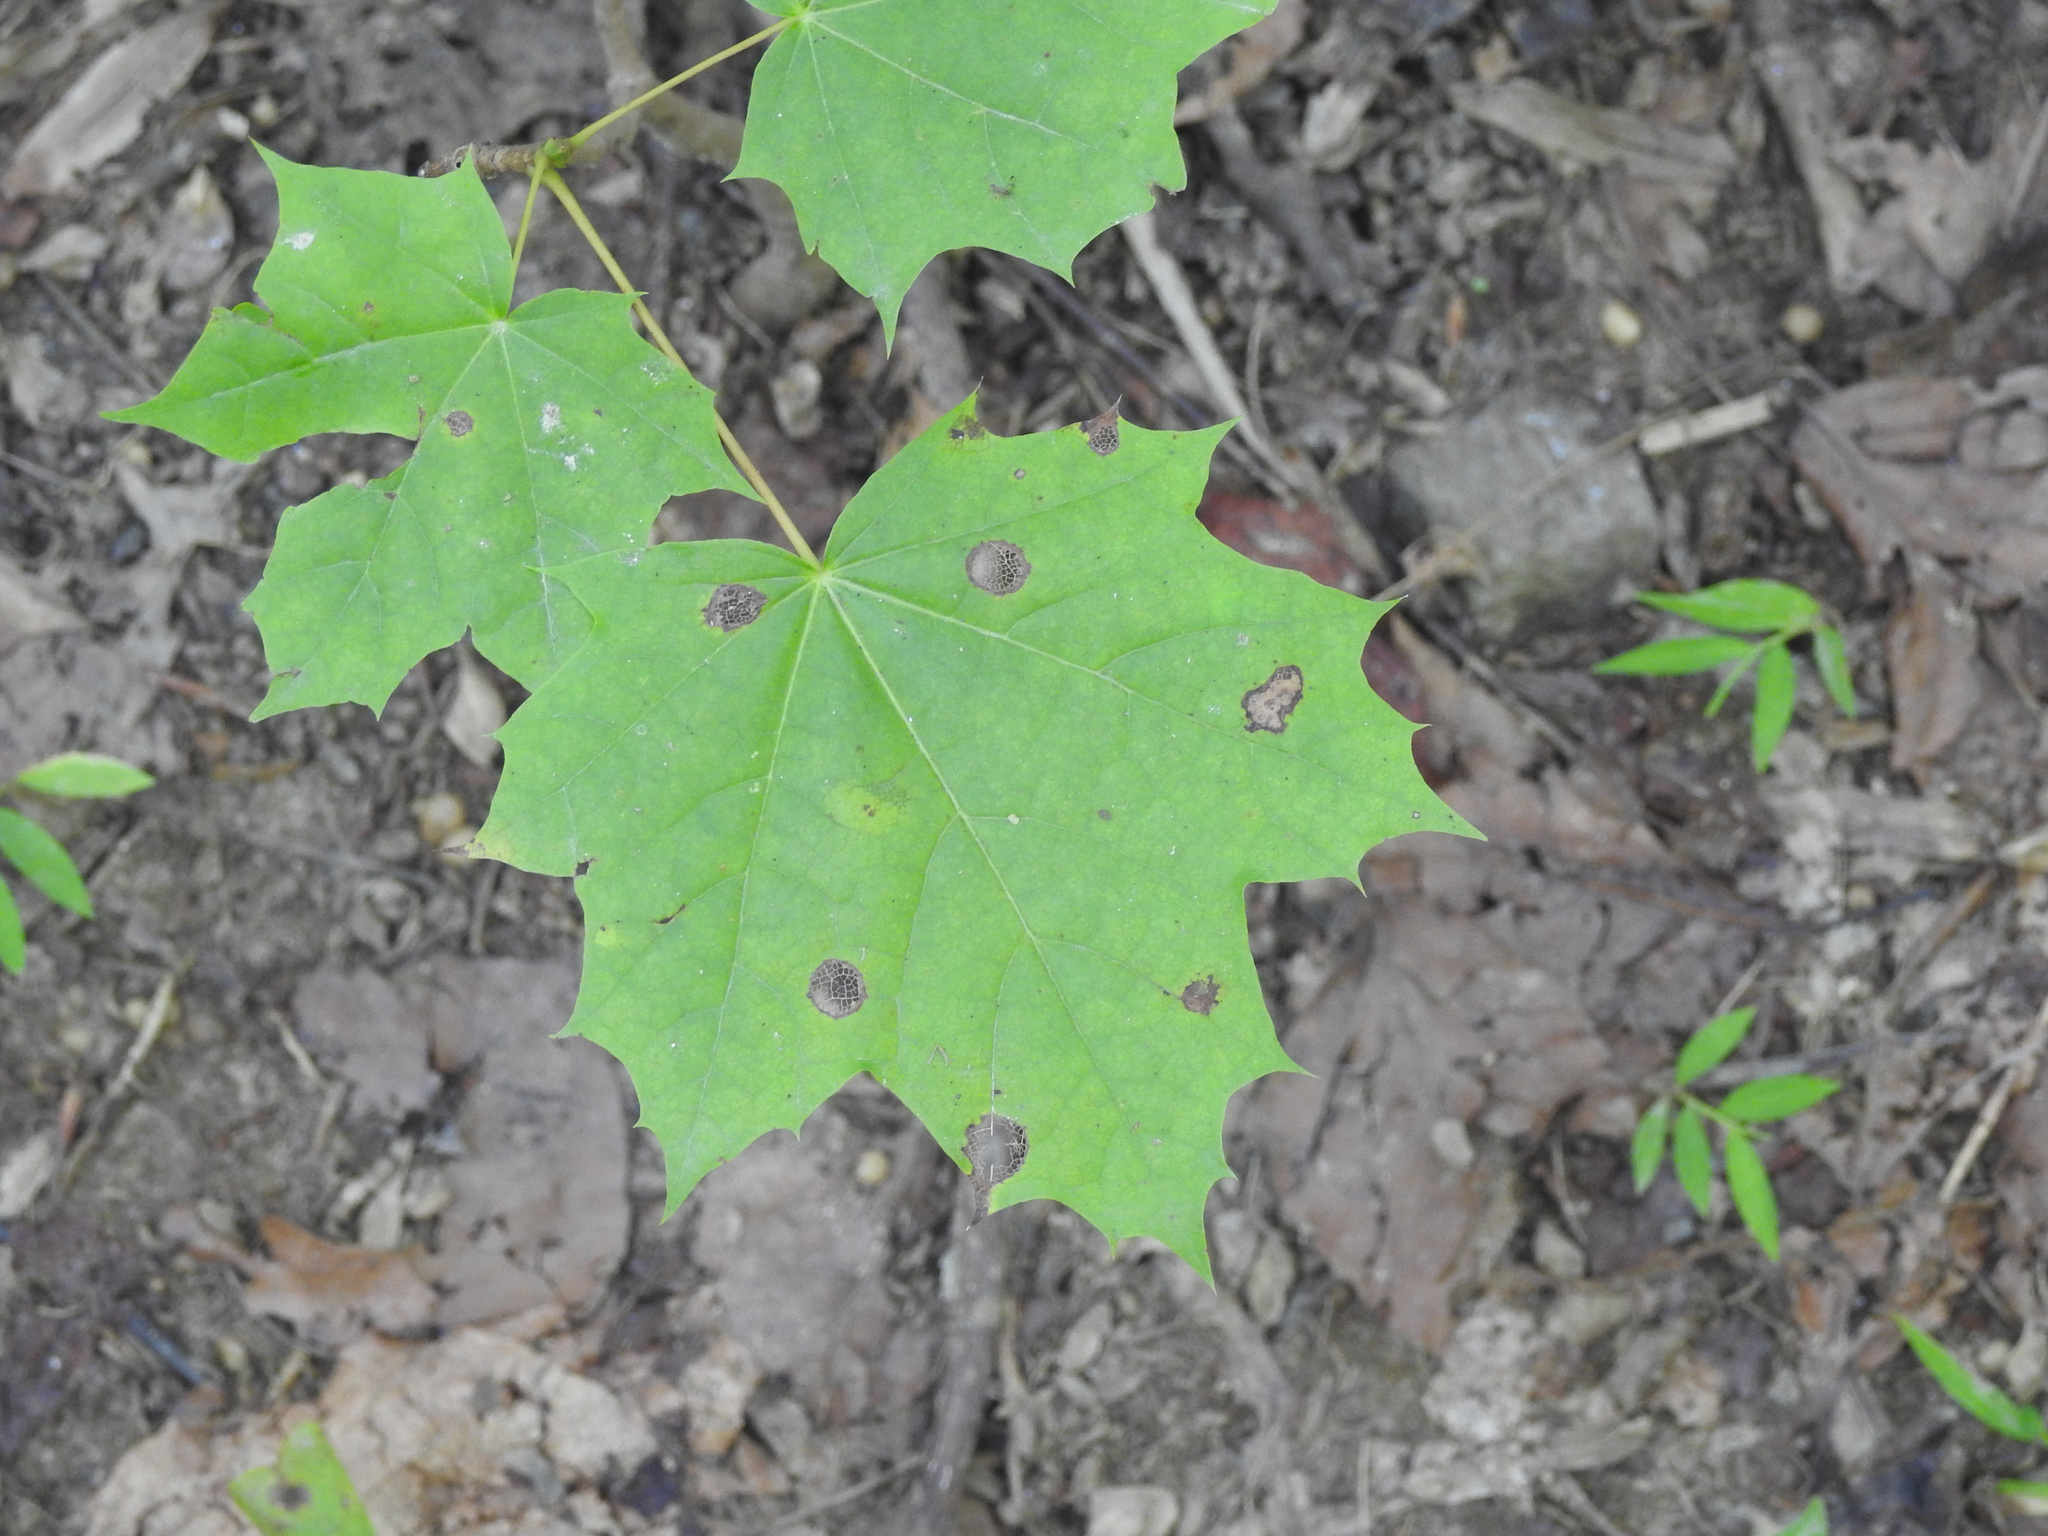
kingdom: Fungi
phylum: Ascomycota
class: Leotiomycetes
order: Rhytismatales
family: Rhytismataceae
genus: Rhytisma
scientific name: Rhytisma acerinum
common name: European tar spot
